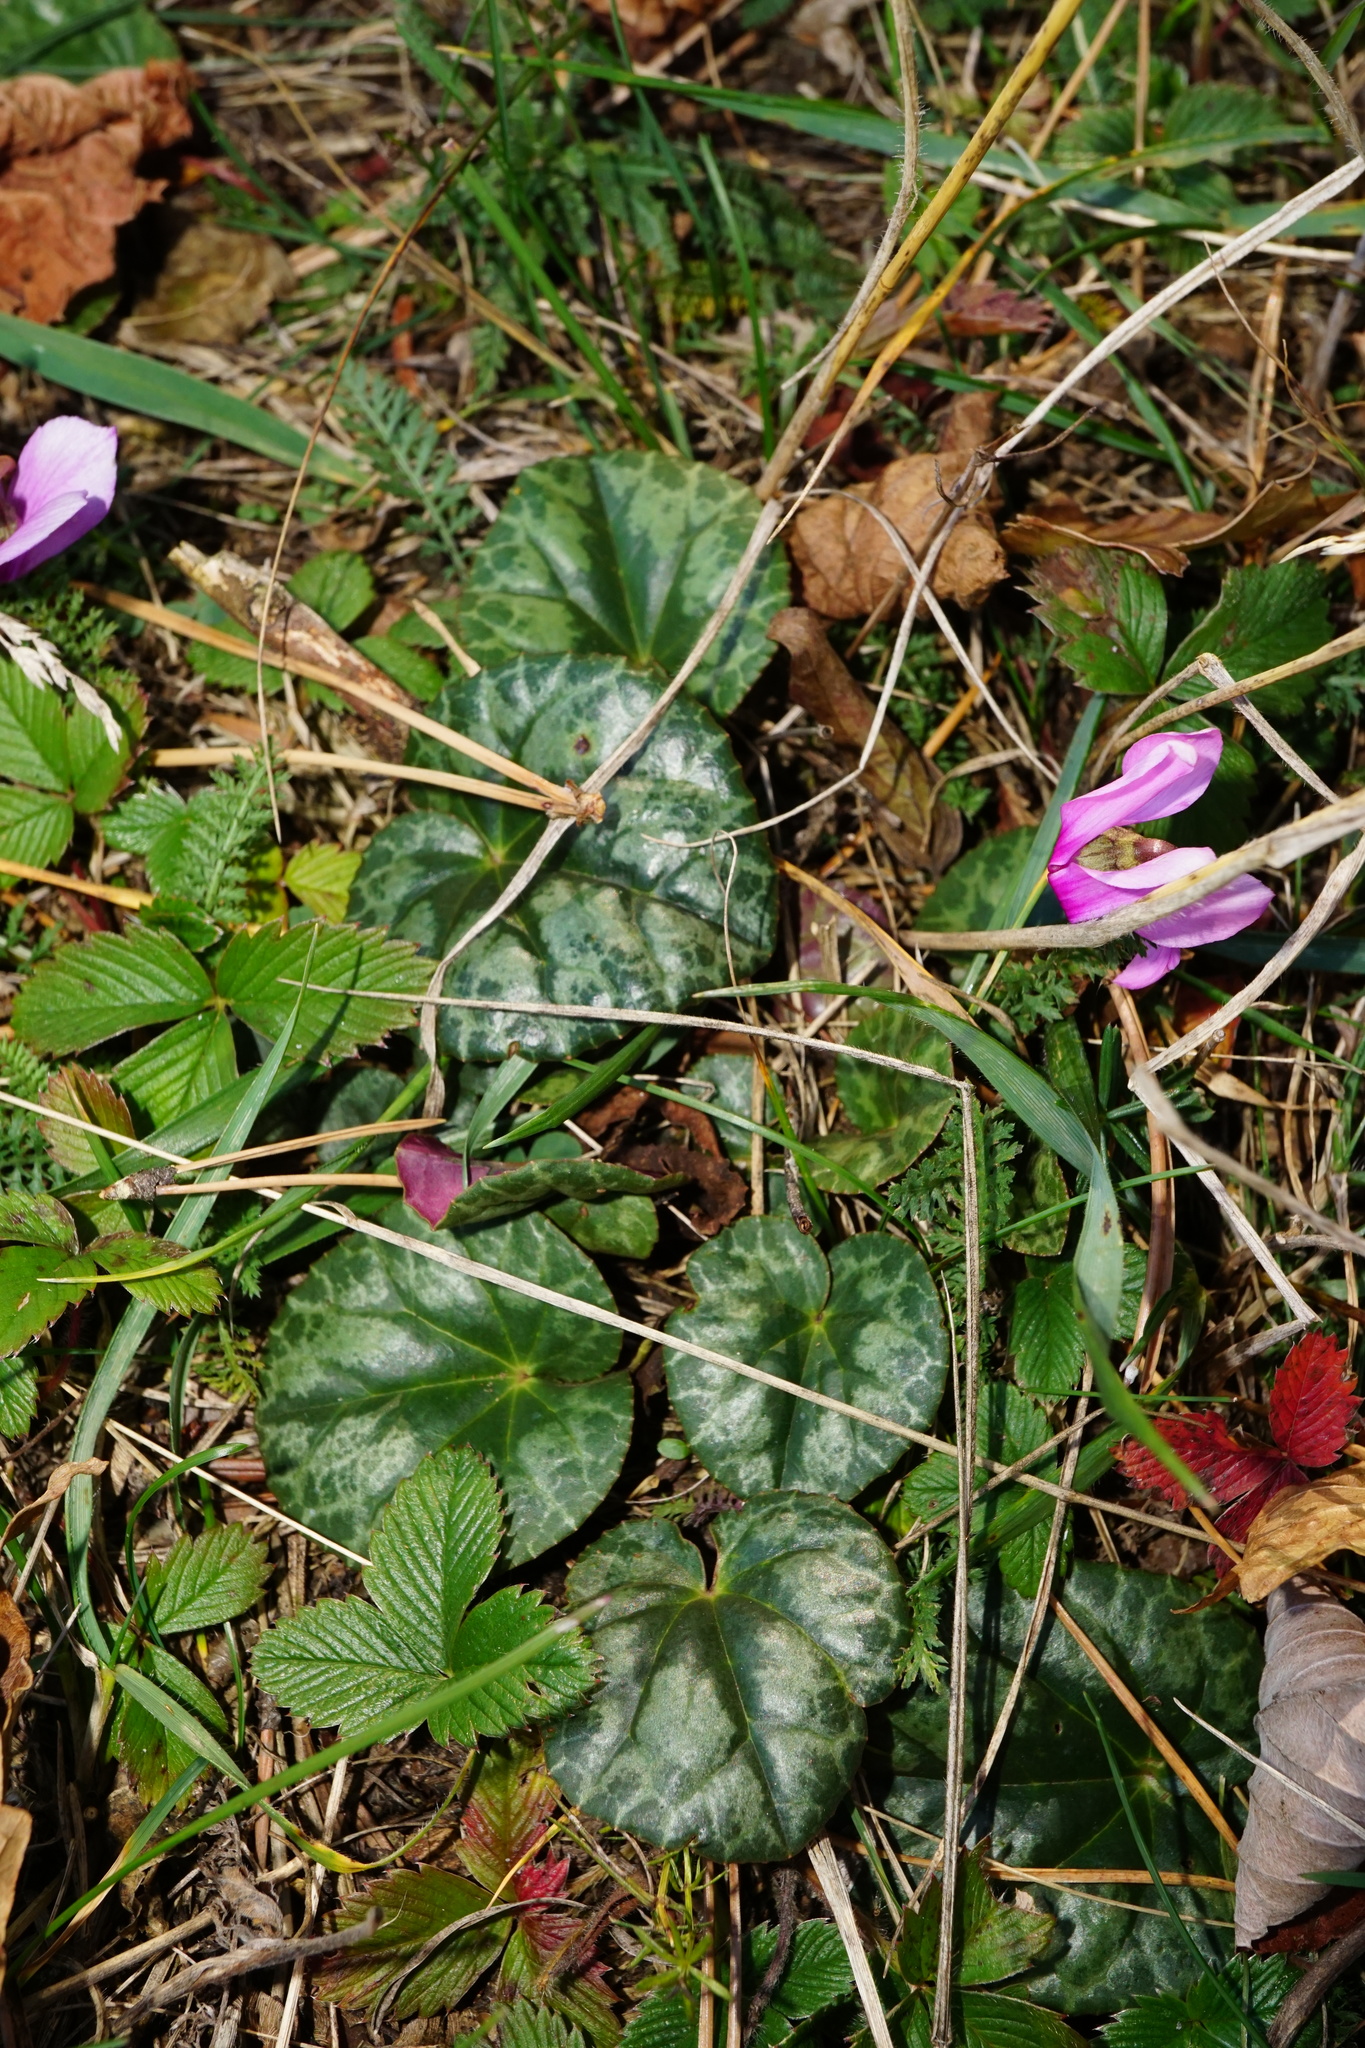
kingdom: Plantae
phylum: Tracheophyta
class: Magnoliopsida
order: Ericales
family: Primulaceae
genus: Cyclamen
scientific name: Cyclamen purpurascens
